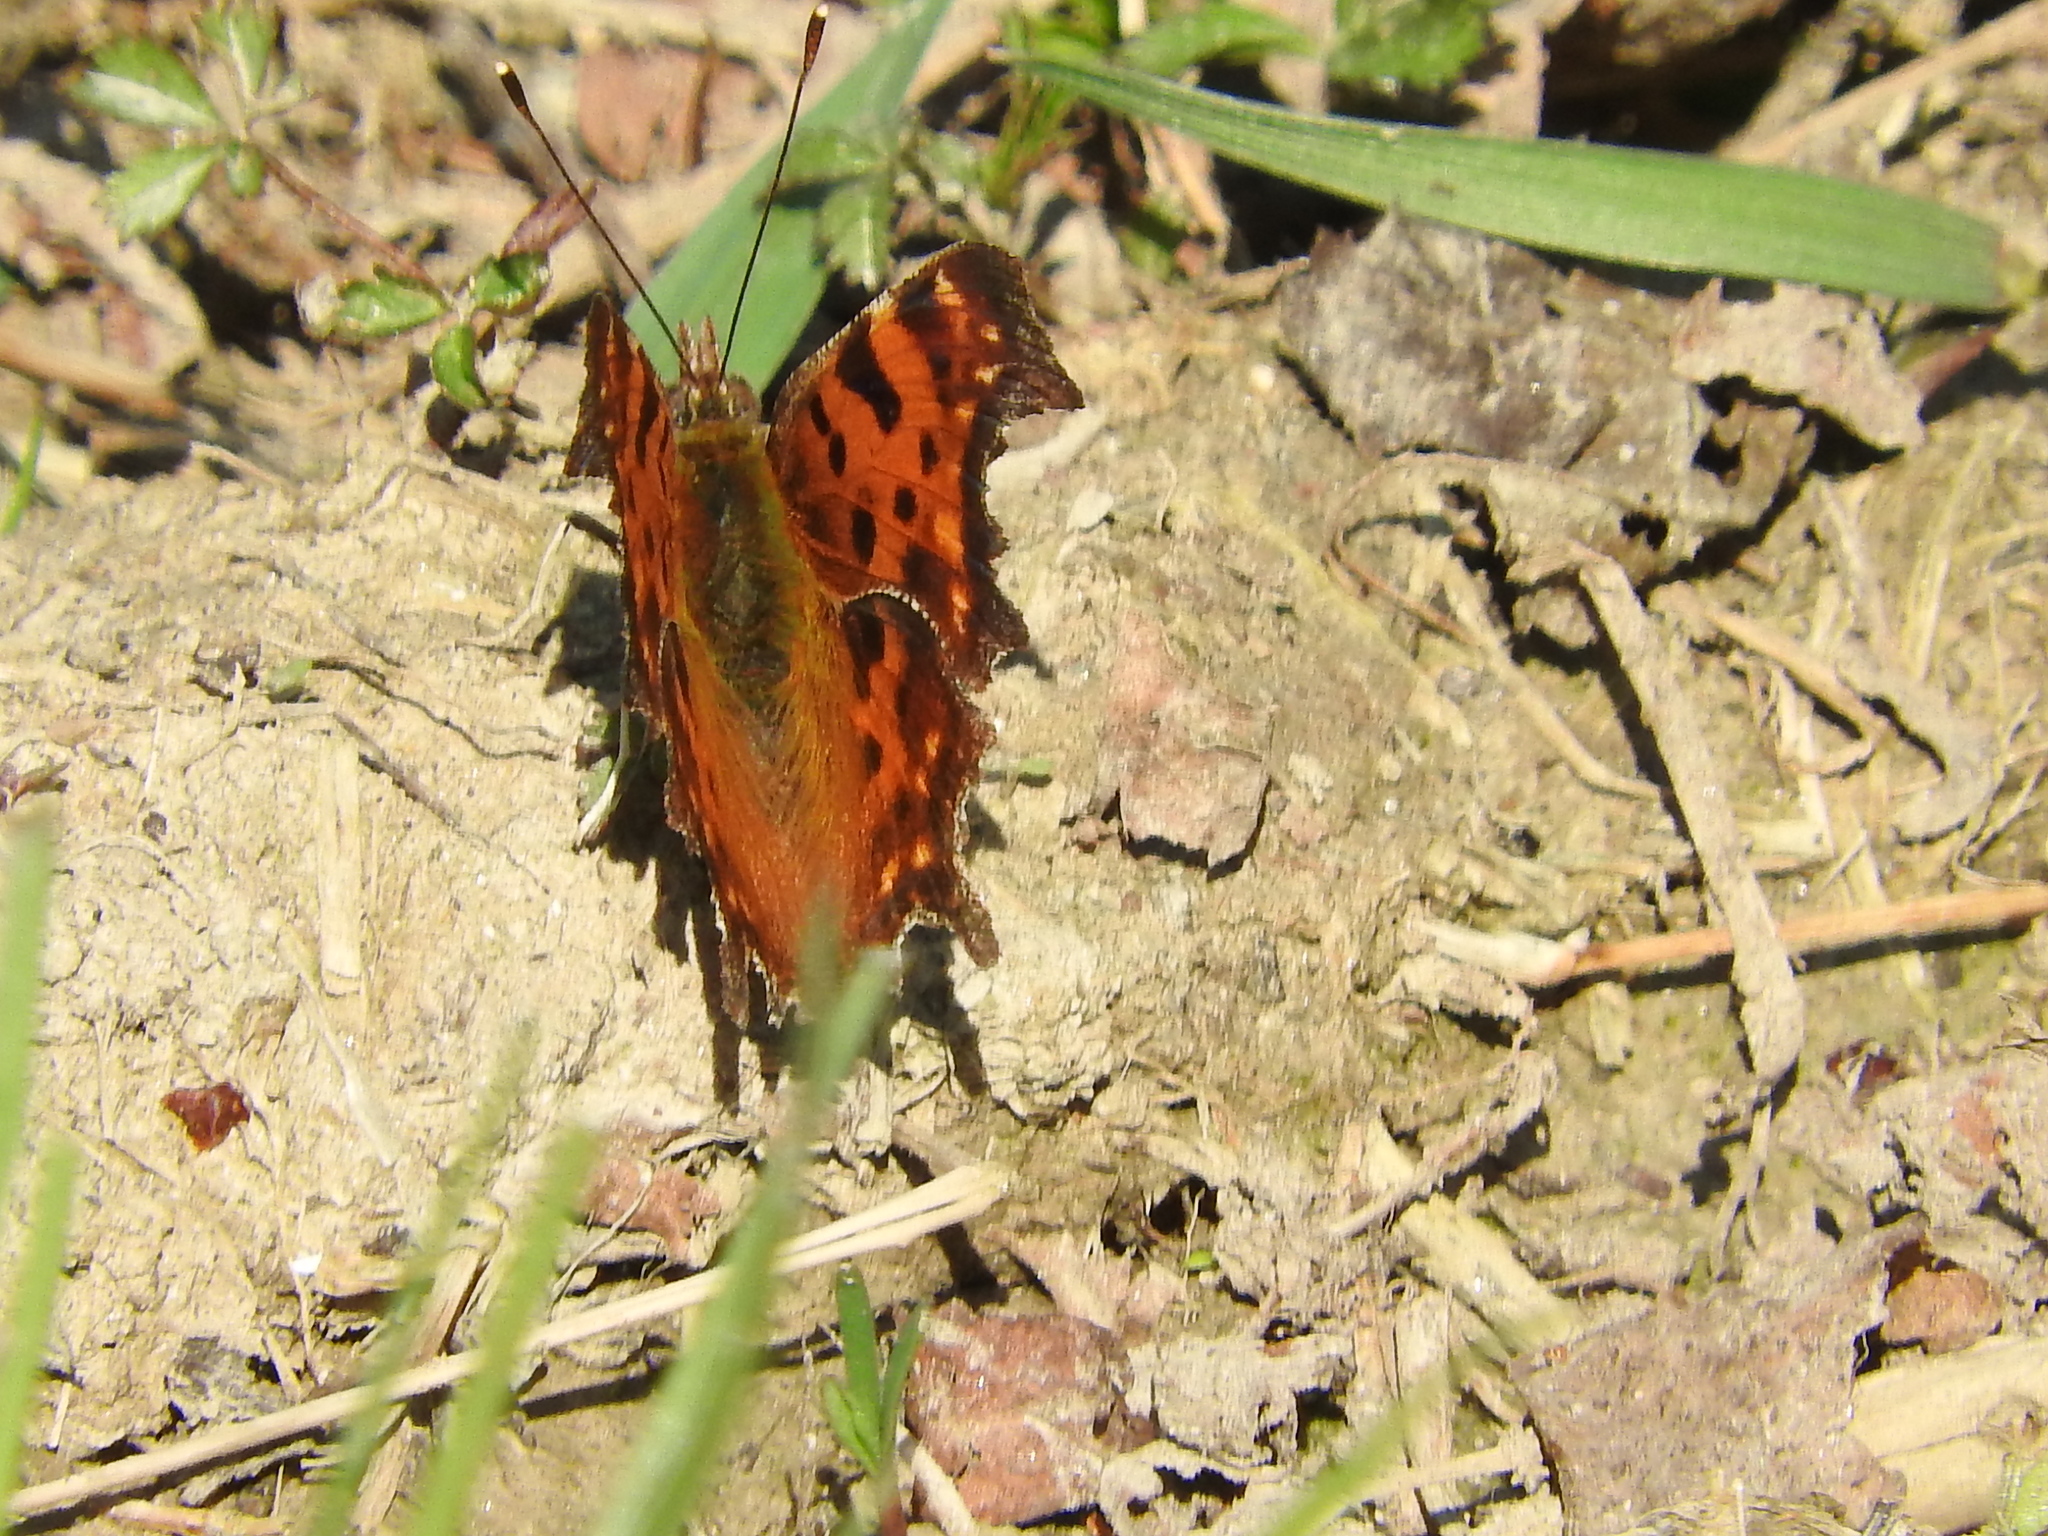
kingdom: Animalia
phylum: Arthropoda
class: Insecta
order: Lepidoptera
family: Nymphalidae
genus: Polygonia
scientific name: Polygonia c-album
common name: Comma
